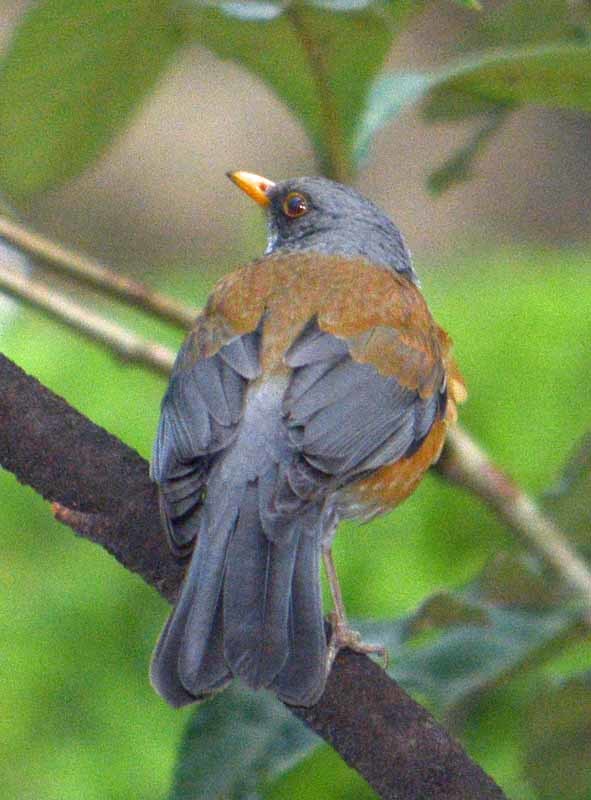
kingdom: Animalia
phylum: Chordata
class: Aves
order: Passeriformes
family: Turdidae
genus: Turdus
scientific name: Turdus rufopalliatus
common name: Rufous-backed robin
